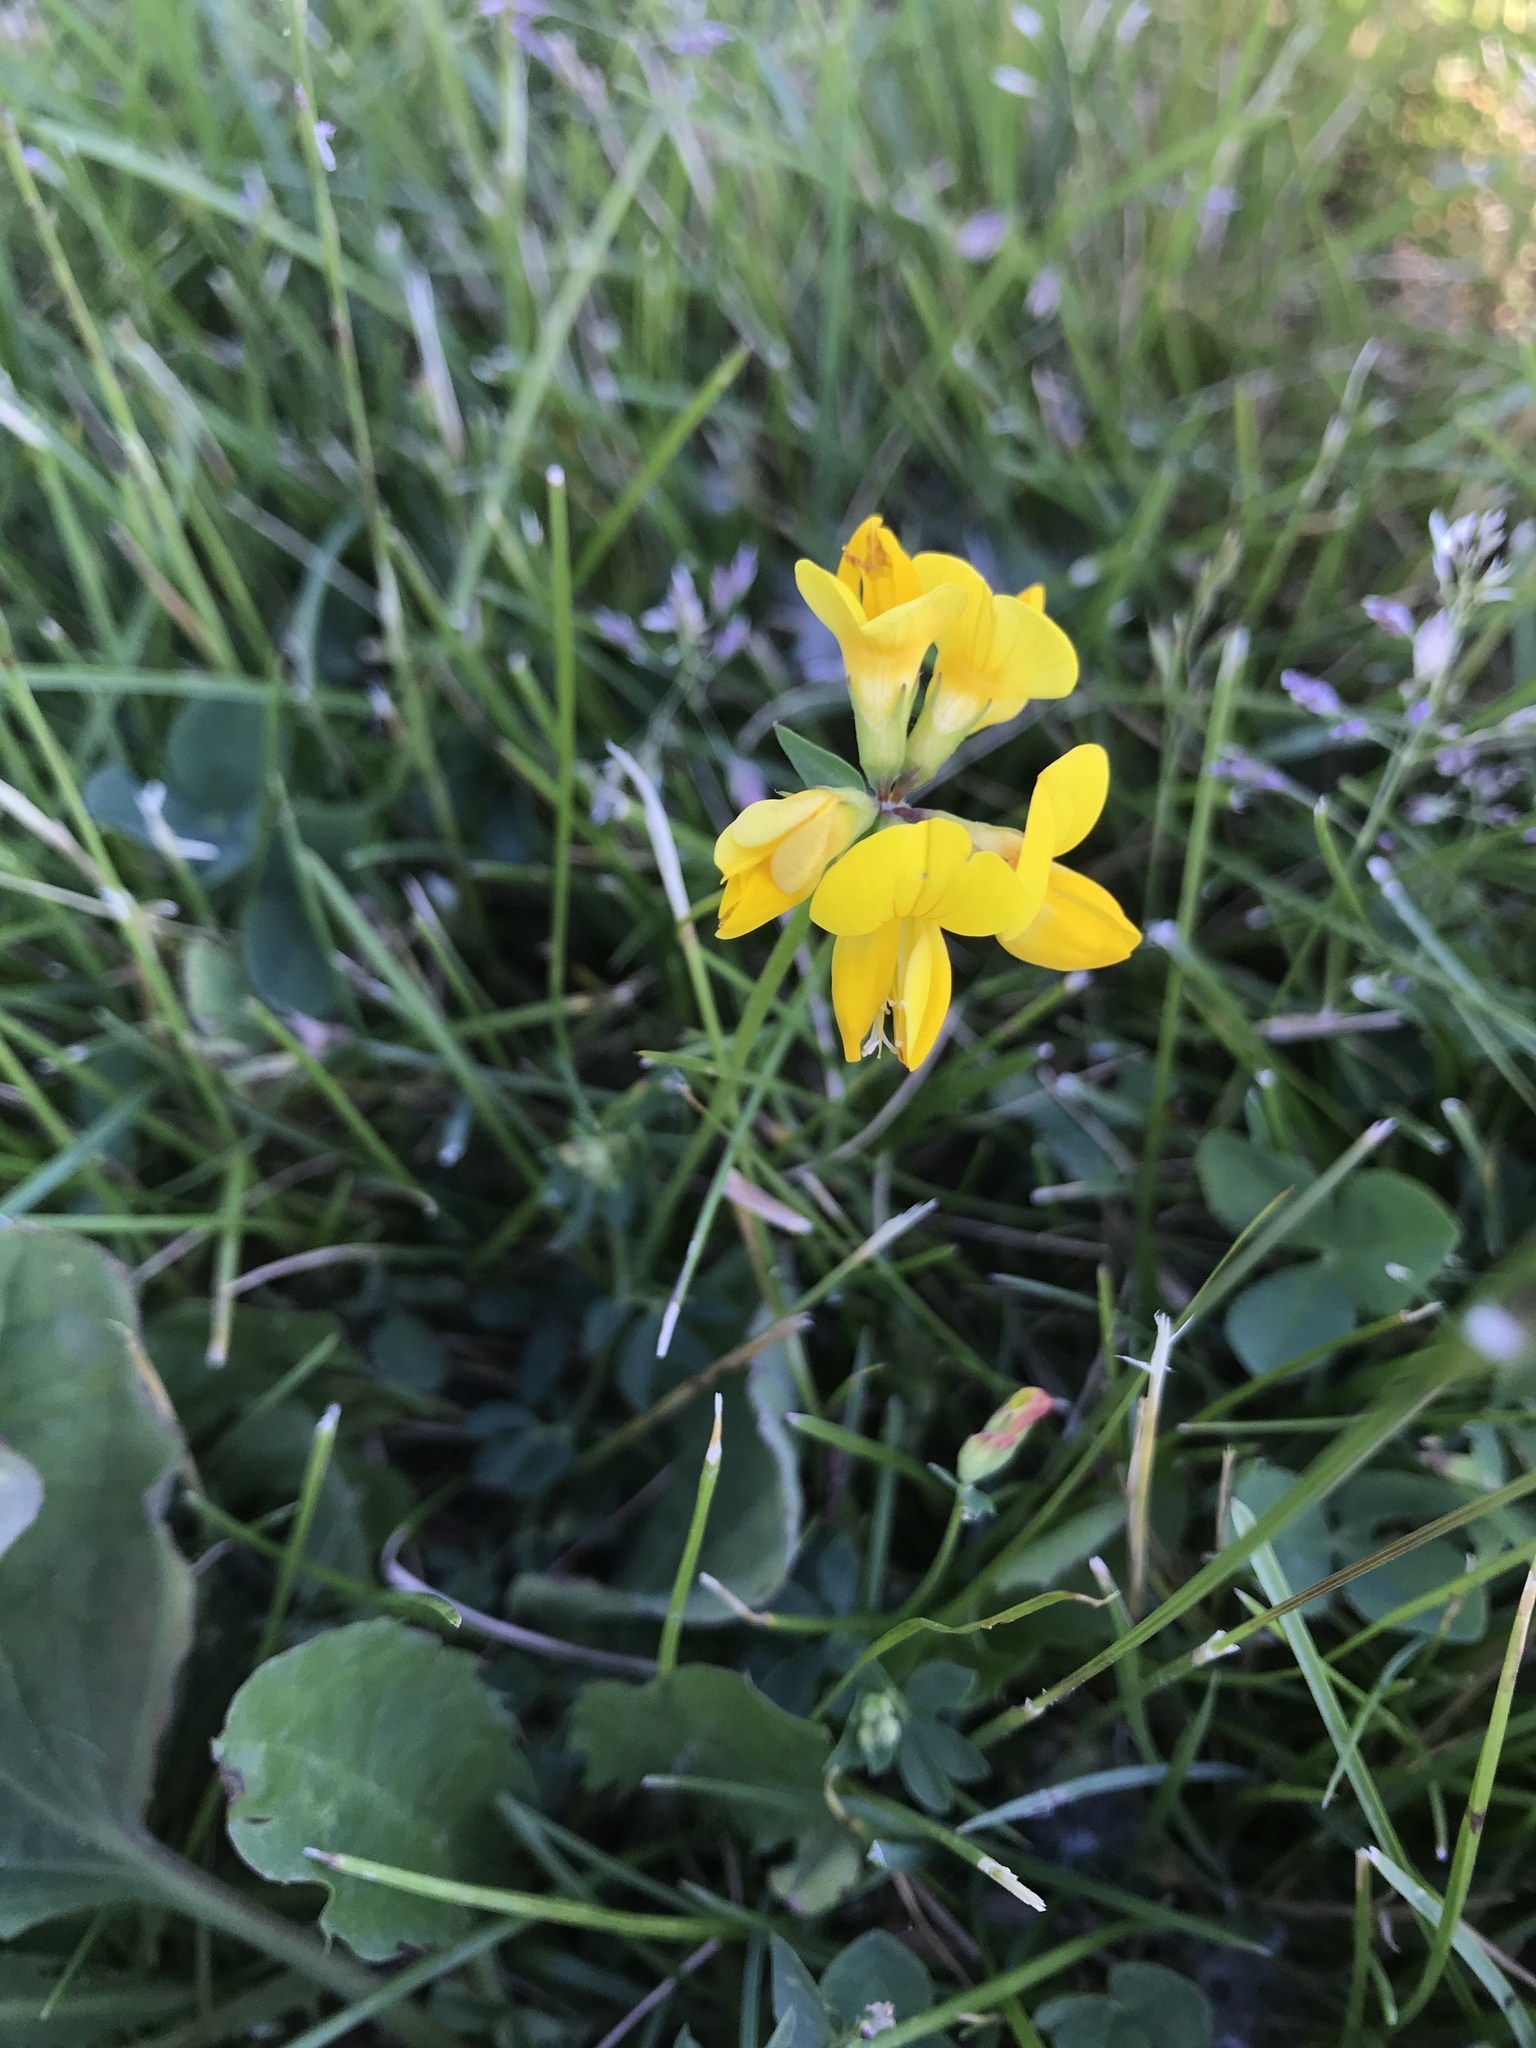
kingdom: Plantae
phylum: Tracheophyta
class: Magnoliopsida
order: Fabales
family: Fabaceae
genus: Lotus
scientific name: Lotus corniculatus
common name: Common bird's-foot-trefoil
